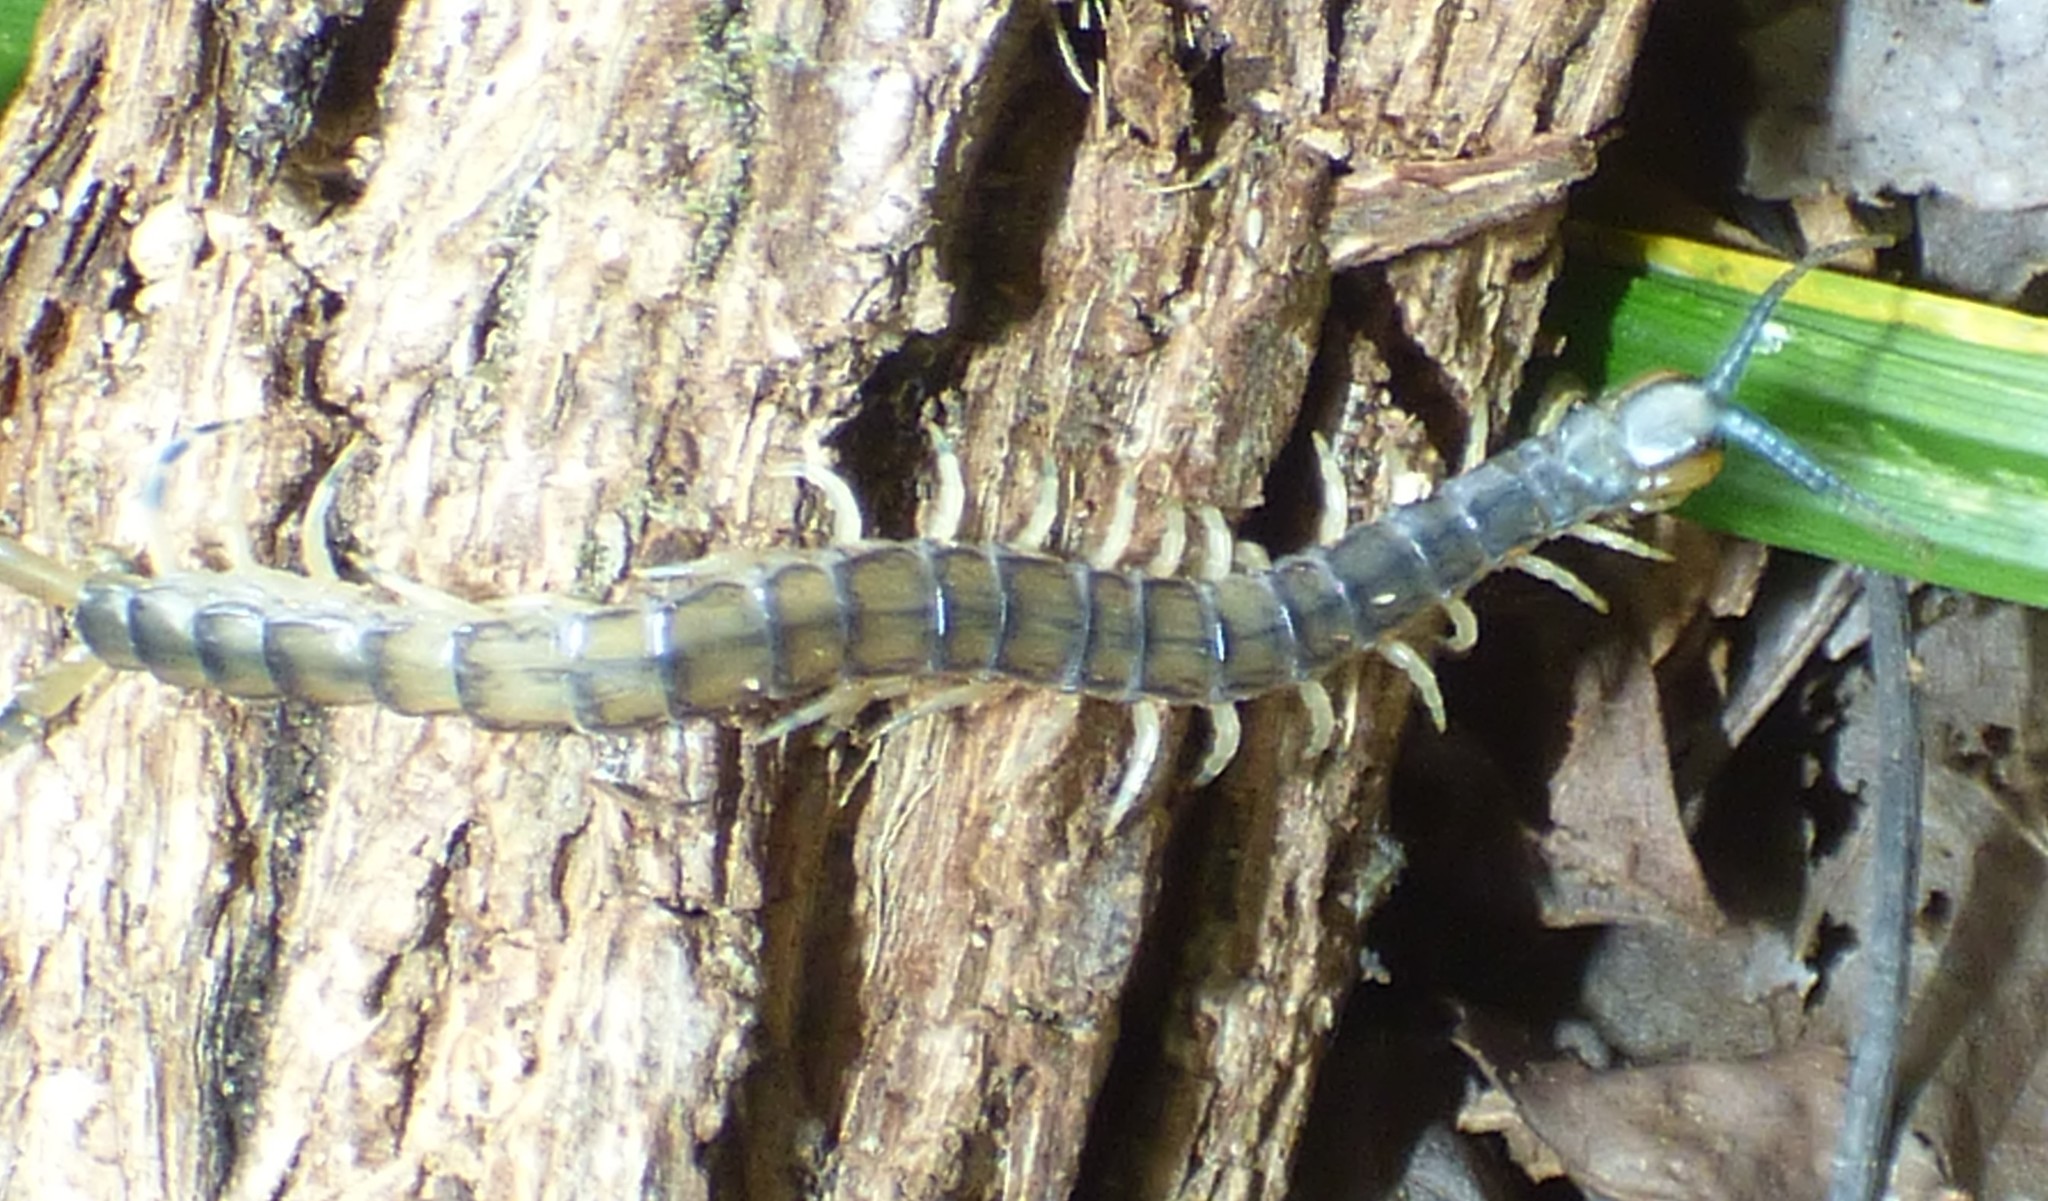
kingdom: Animalia
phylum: Arthropoda
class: Chilopoda
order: Scolopendromorpha
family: Scolopendridae
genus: Hemiscolopendra
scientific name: Hemiscolopendra marginata
